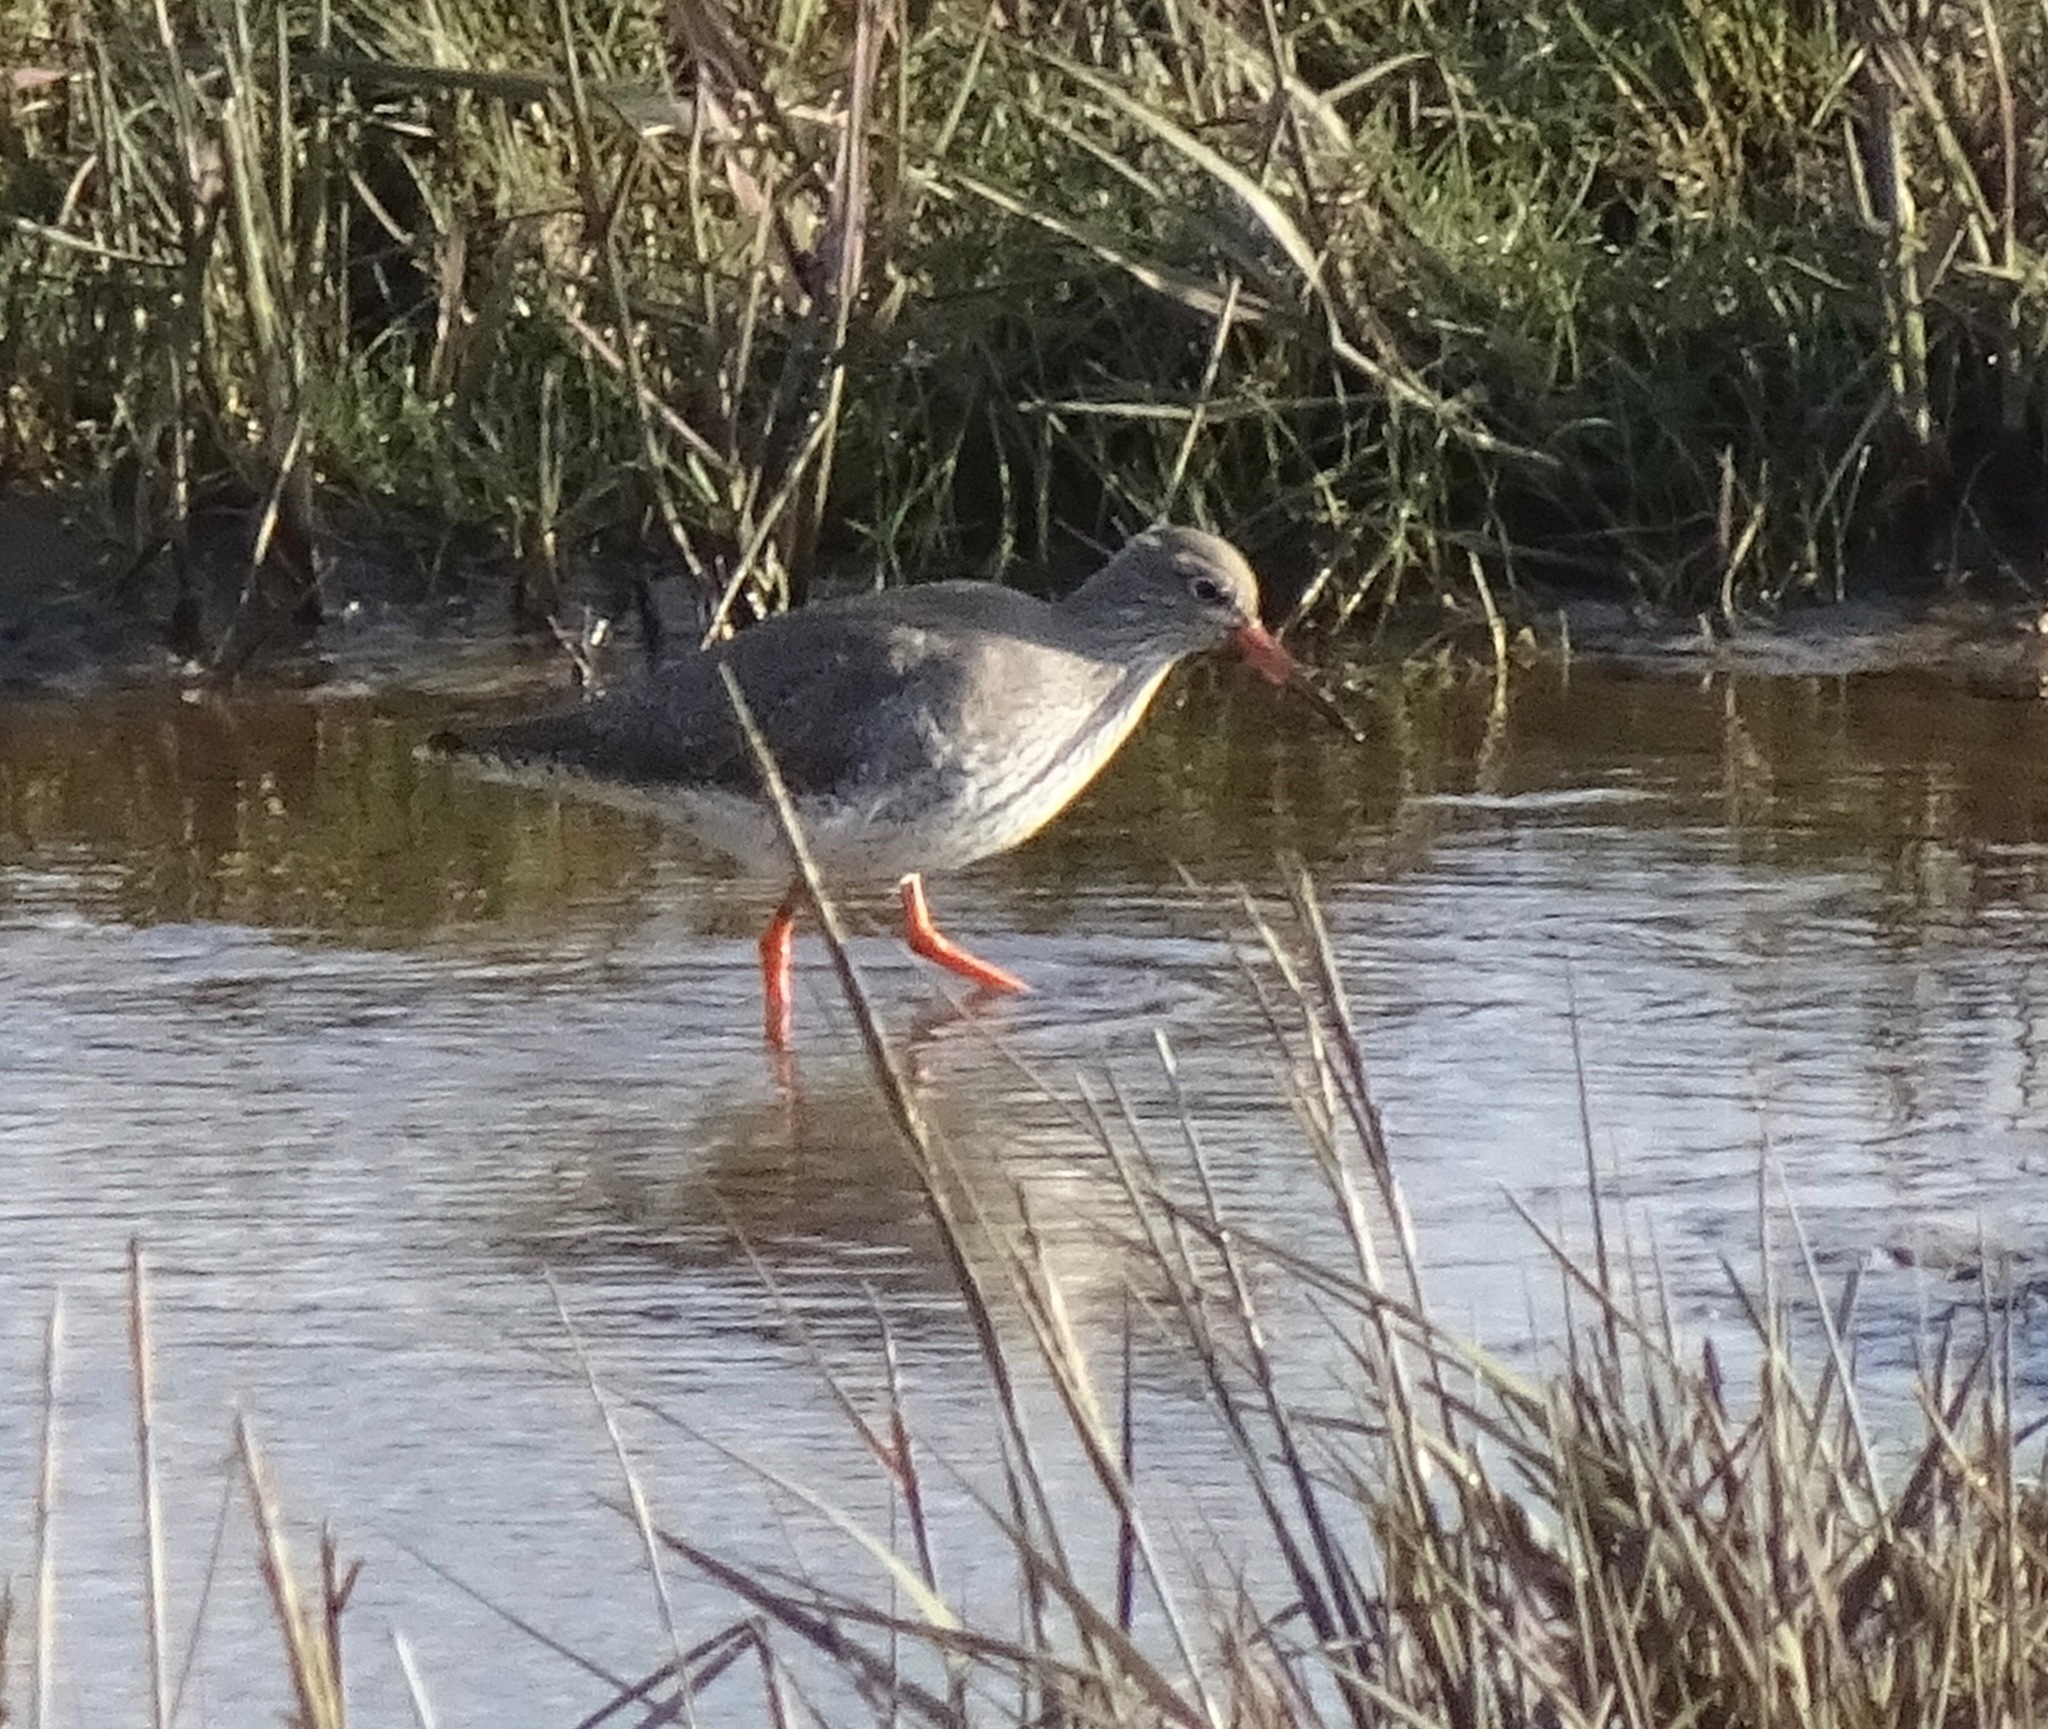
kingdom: Animalia
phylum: Chordata
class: Aves
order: Charadriiformes
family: Scolopacidae
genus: Tringa
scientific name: Tringa totanus
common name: Common redshank
